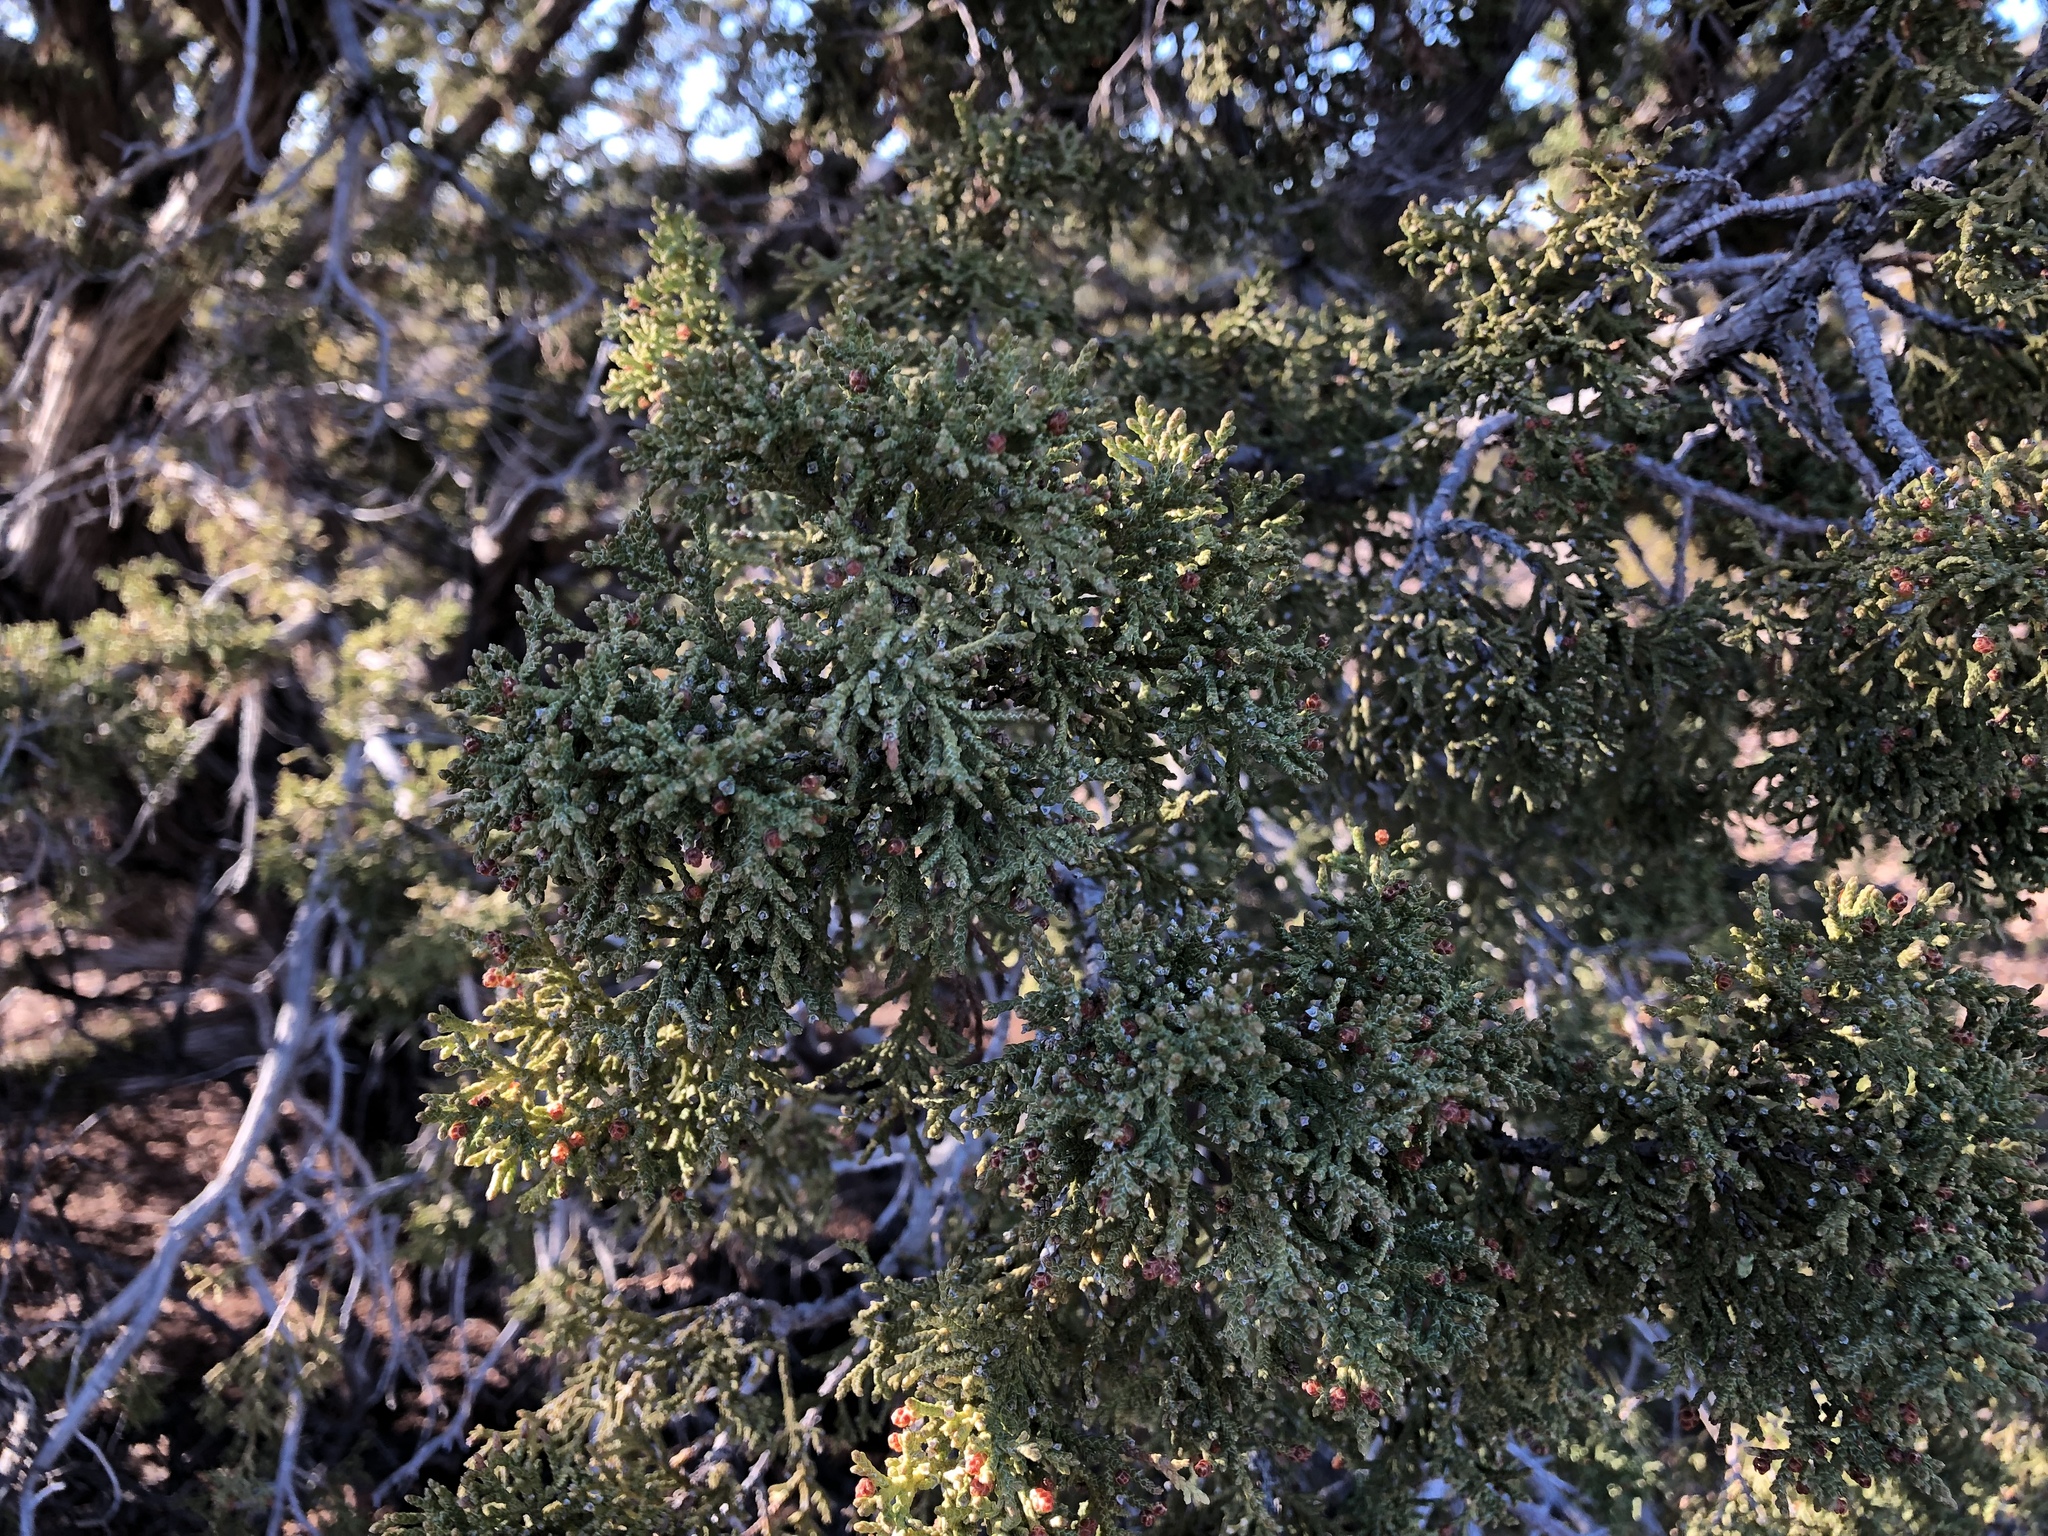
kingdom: Plantae
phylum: Tracheophyta
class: Pinopsida
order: Pinales
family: Cupressaceae
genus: Juniperus
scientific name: Juniperus monosperma
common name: One-seed juniper
